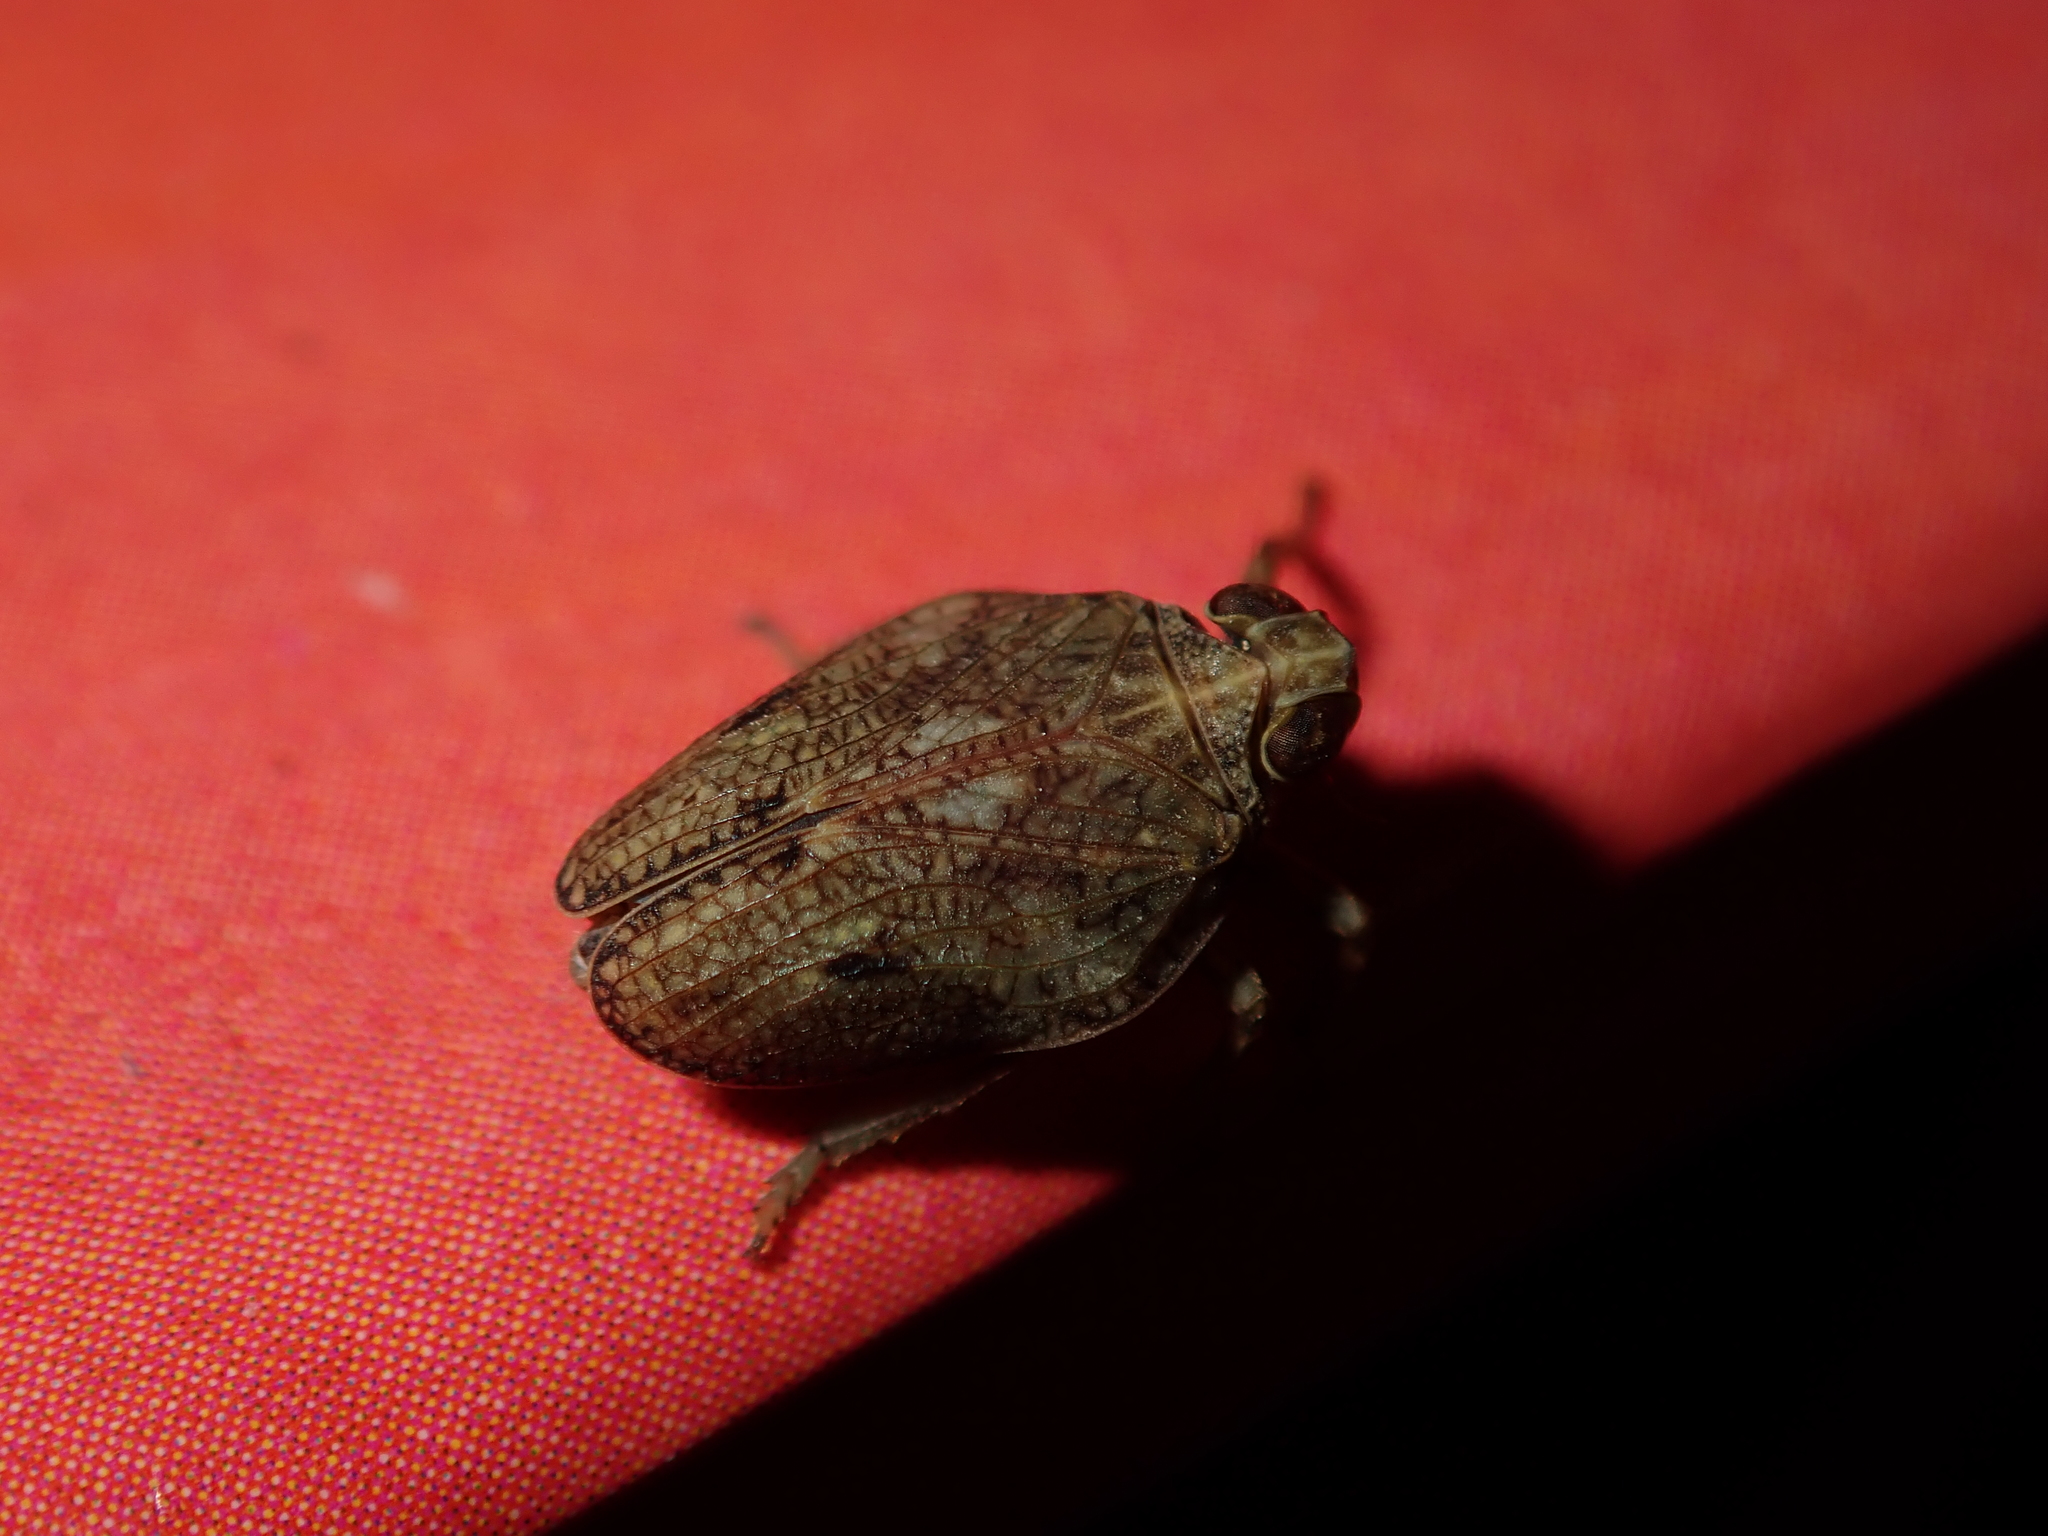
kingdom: Animalia
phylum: Arthropoda
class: Insecta
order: Hemiptera
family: Issidae
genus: Issus
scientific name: Issus coleoptratus
